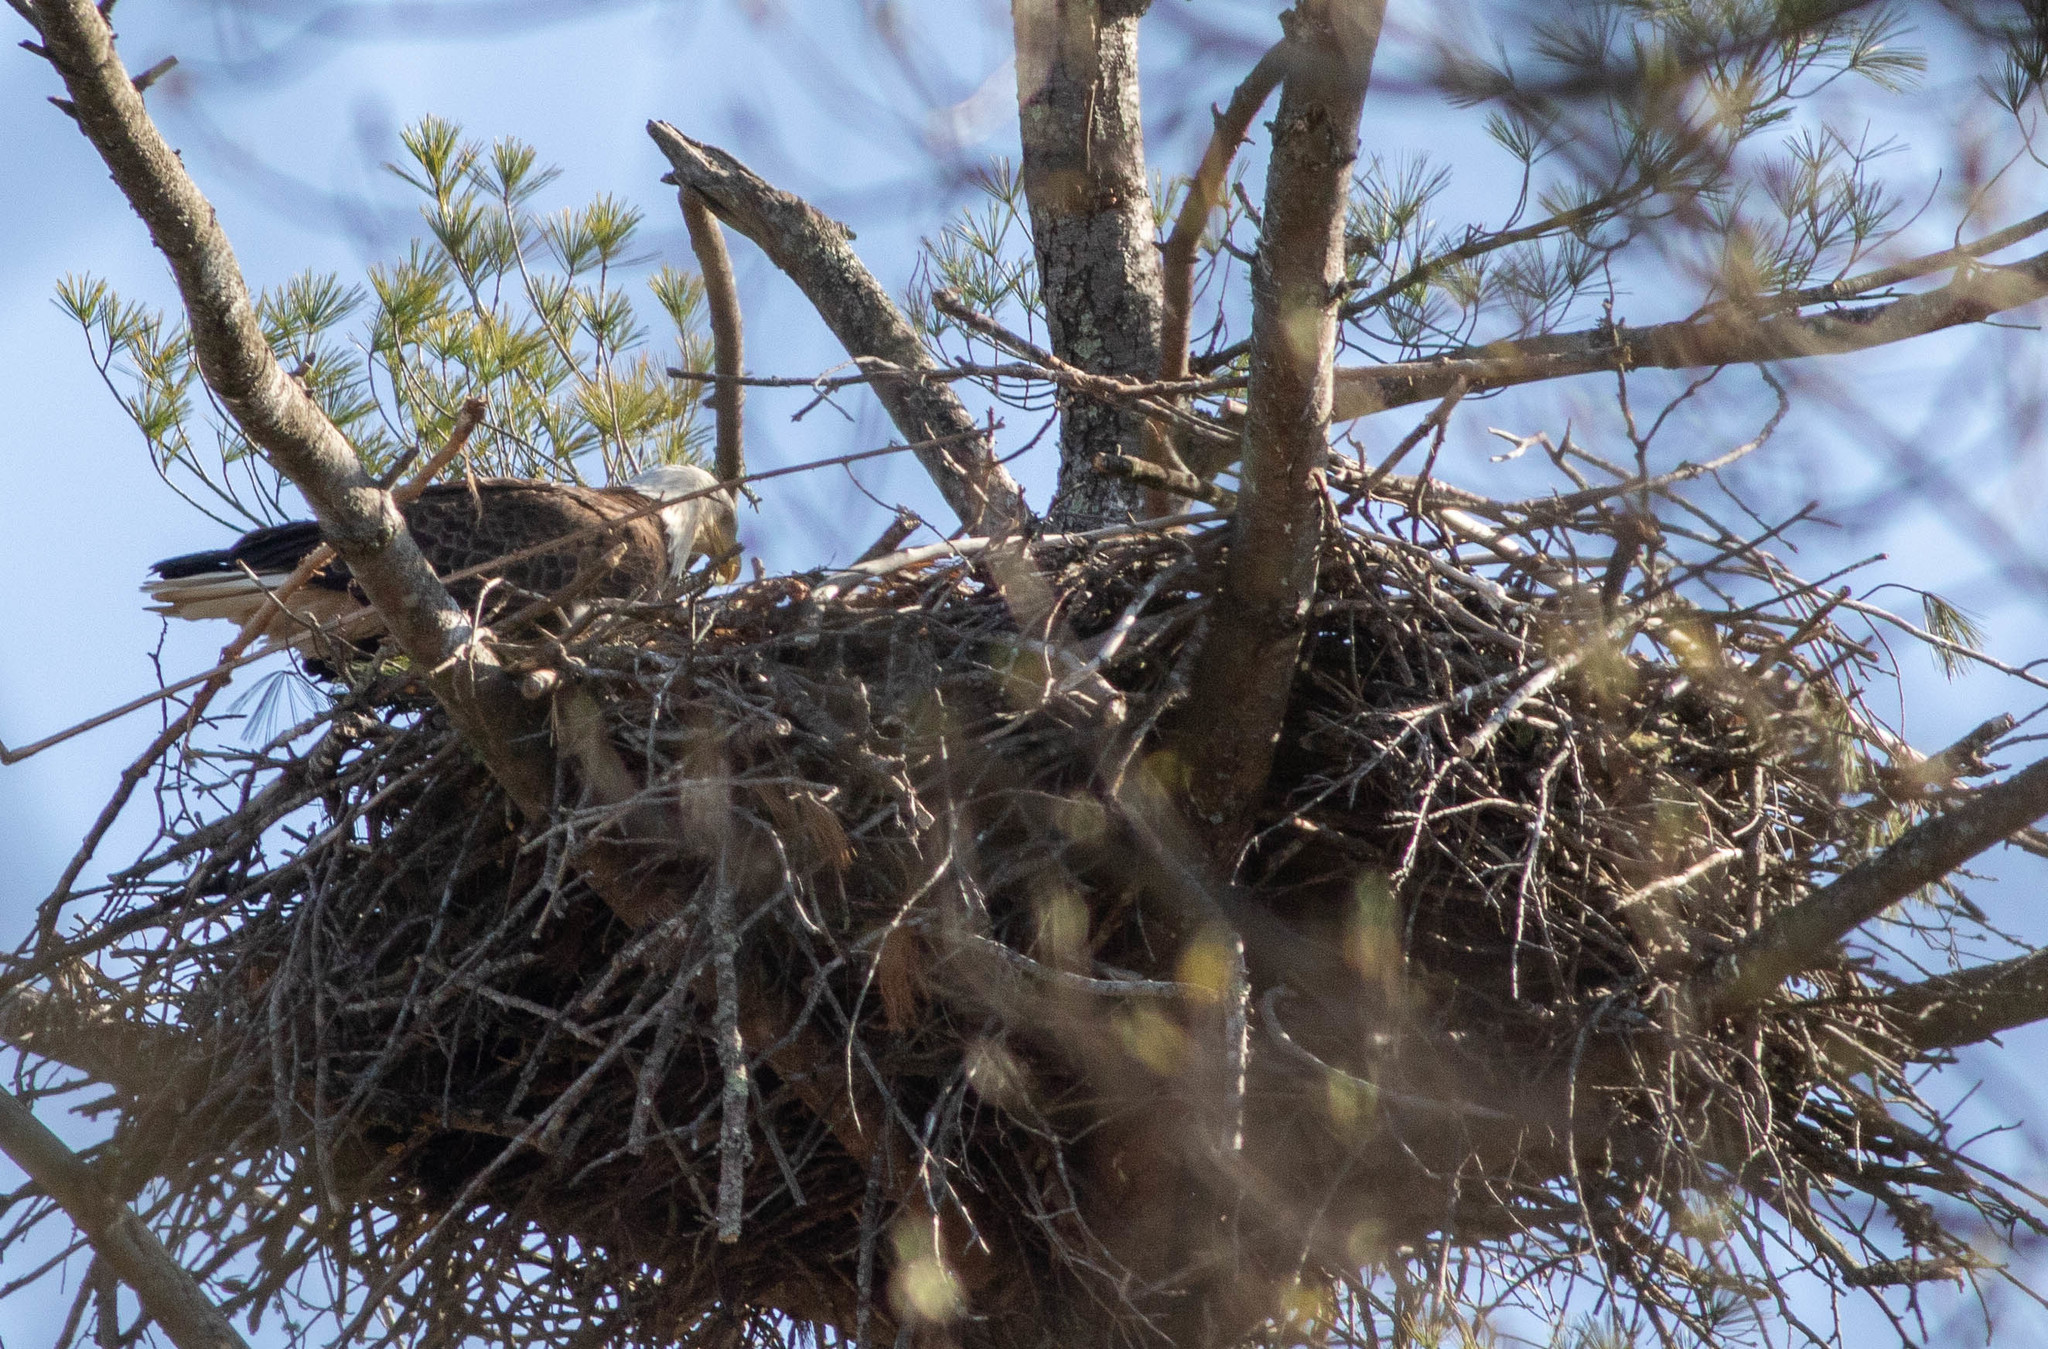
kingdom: Animalia
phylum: Chordata
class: Aves
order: Accipitriformes
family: Accipitridae
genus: Haliaeetus
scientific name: Haliaeetus leucocephalus
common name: Bald eagle
